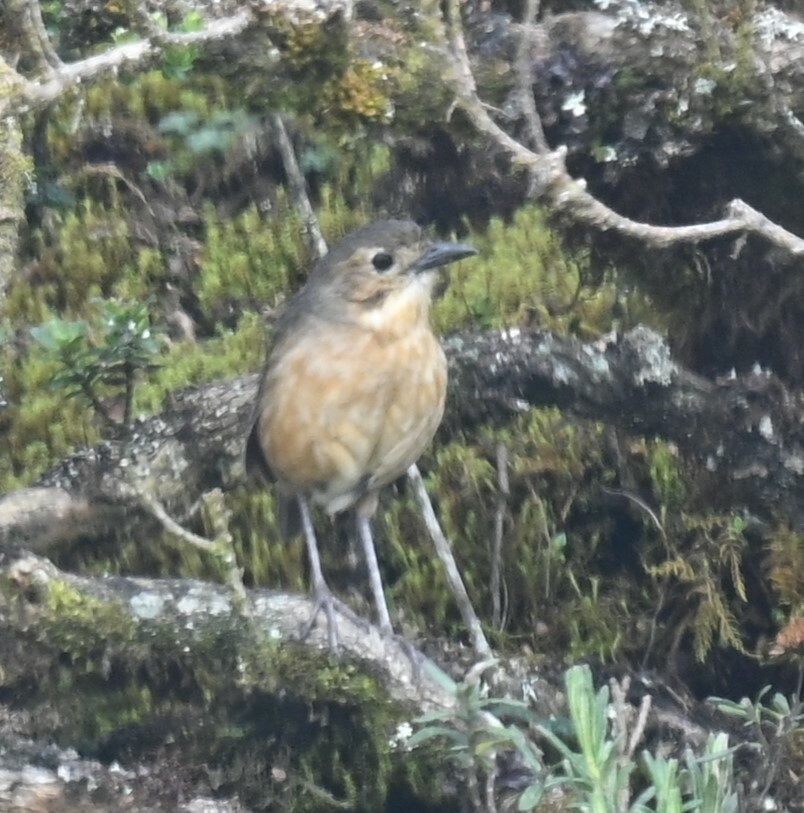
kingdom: Animalia
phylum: Chordata
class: Aves
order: Passeriformes
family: Grallariidae
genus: Grallaria
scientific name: Grallaria quitensis
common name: Tawny antpitta
